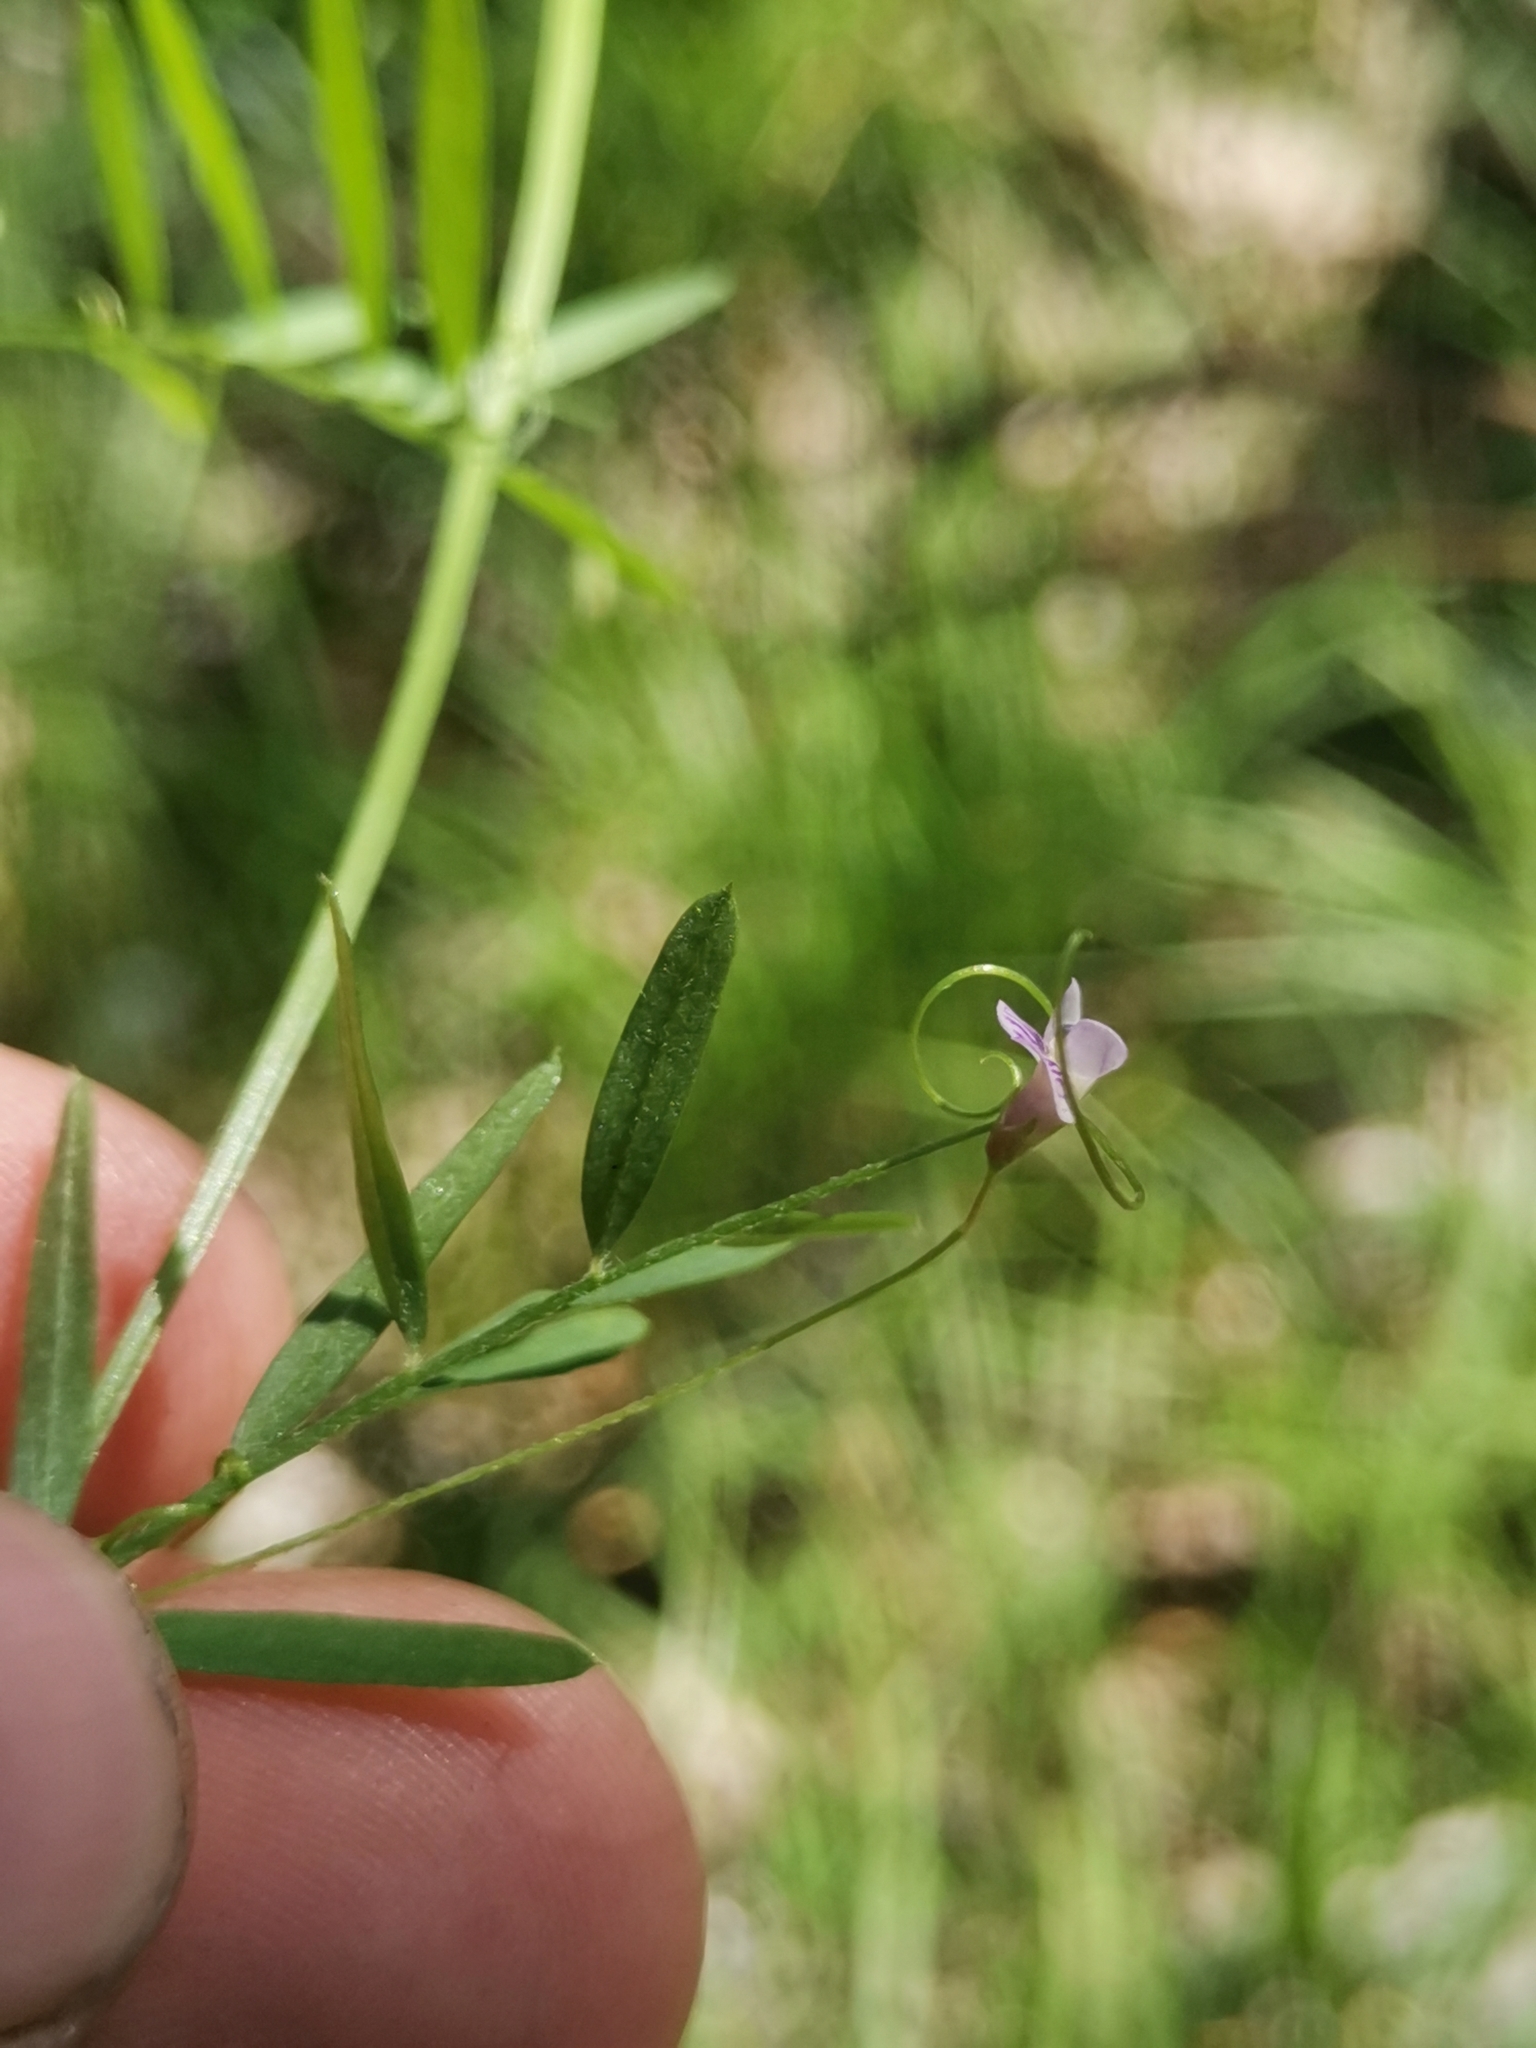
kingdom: Plantae
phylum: Tracheophyta
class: Magnoliopsida
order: Fabales
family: Fabaceae
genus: Vicia
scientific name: Vicia tetrasperma
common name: Smooth tare
